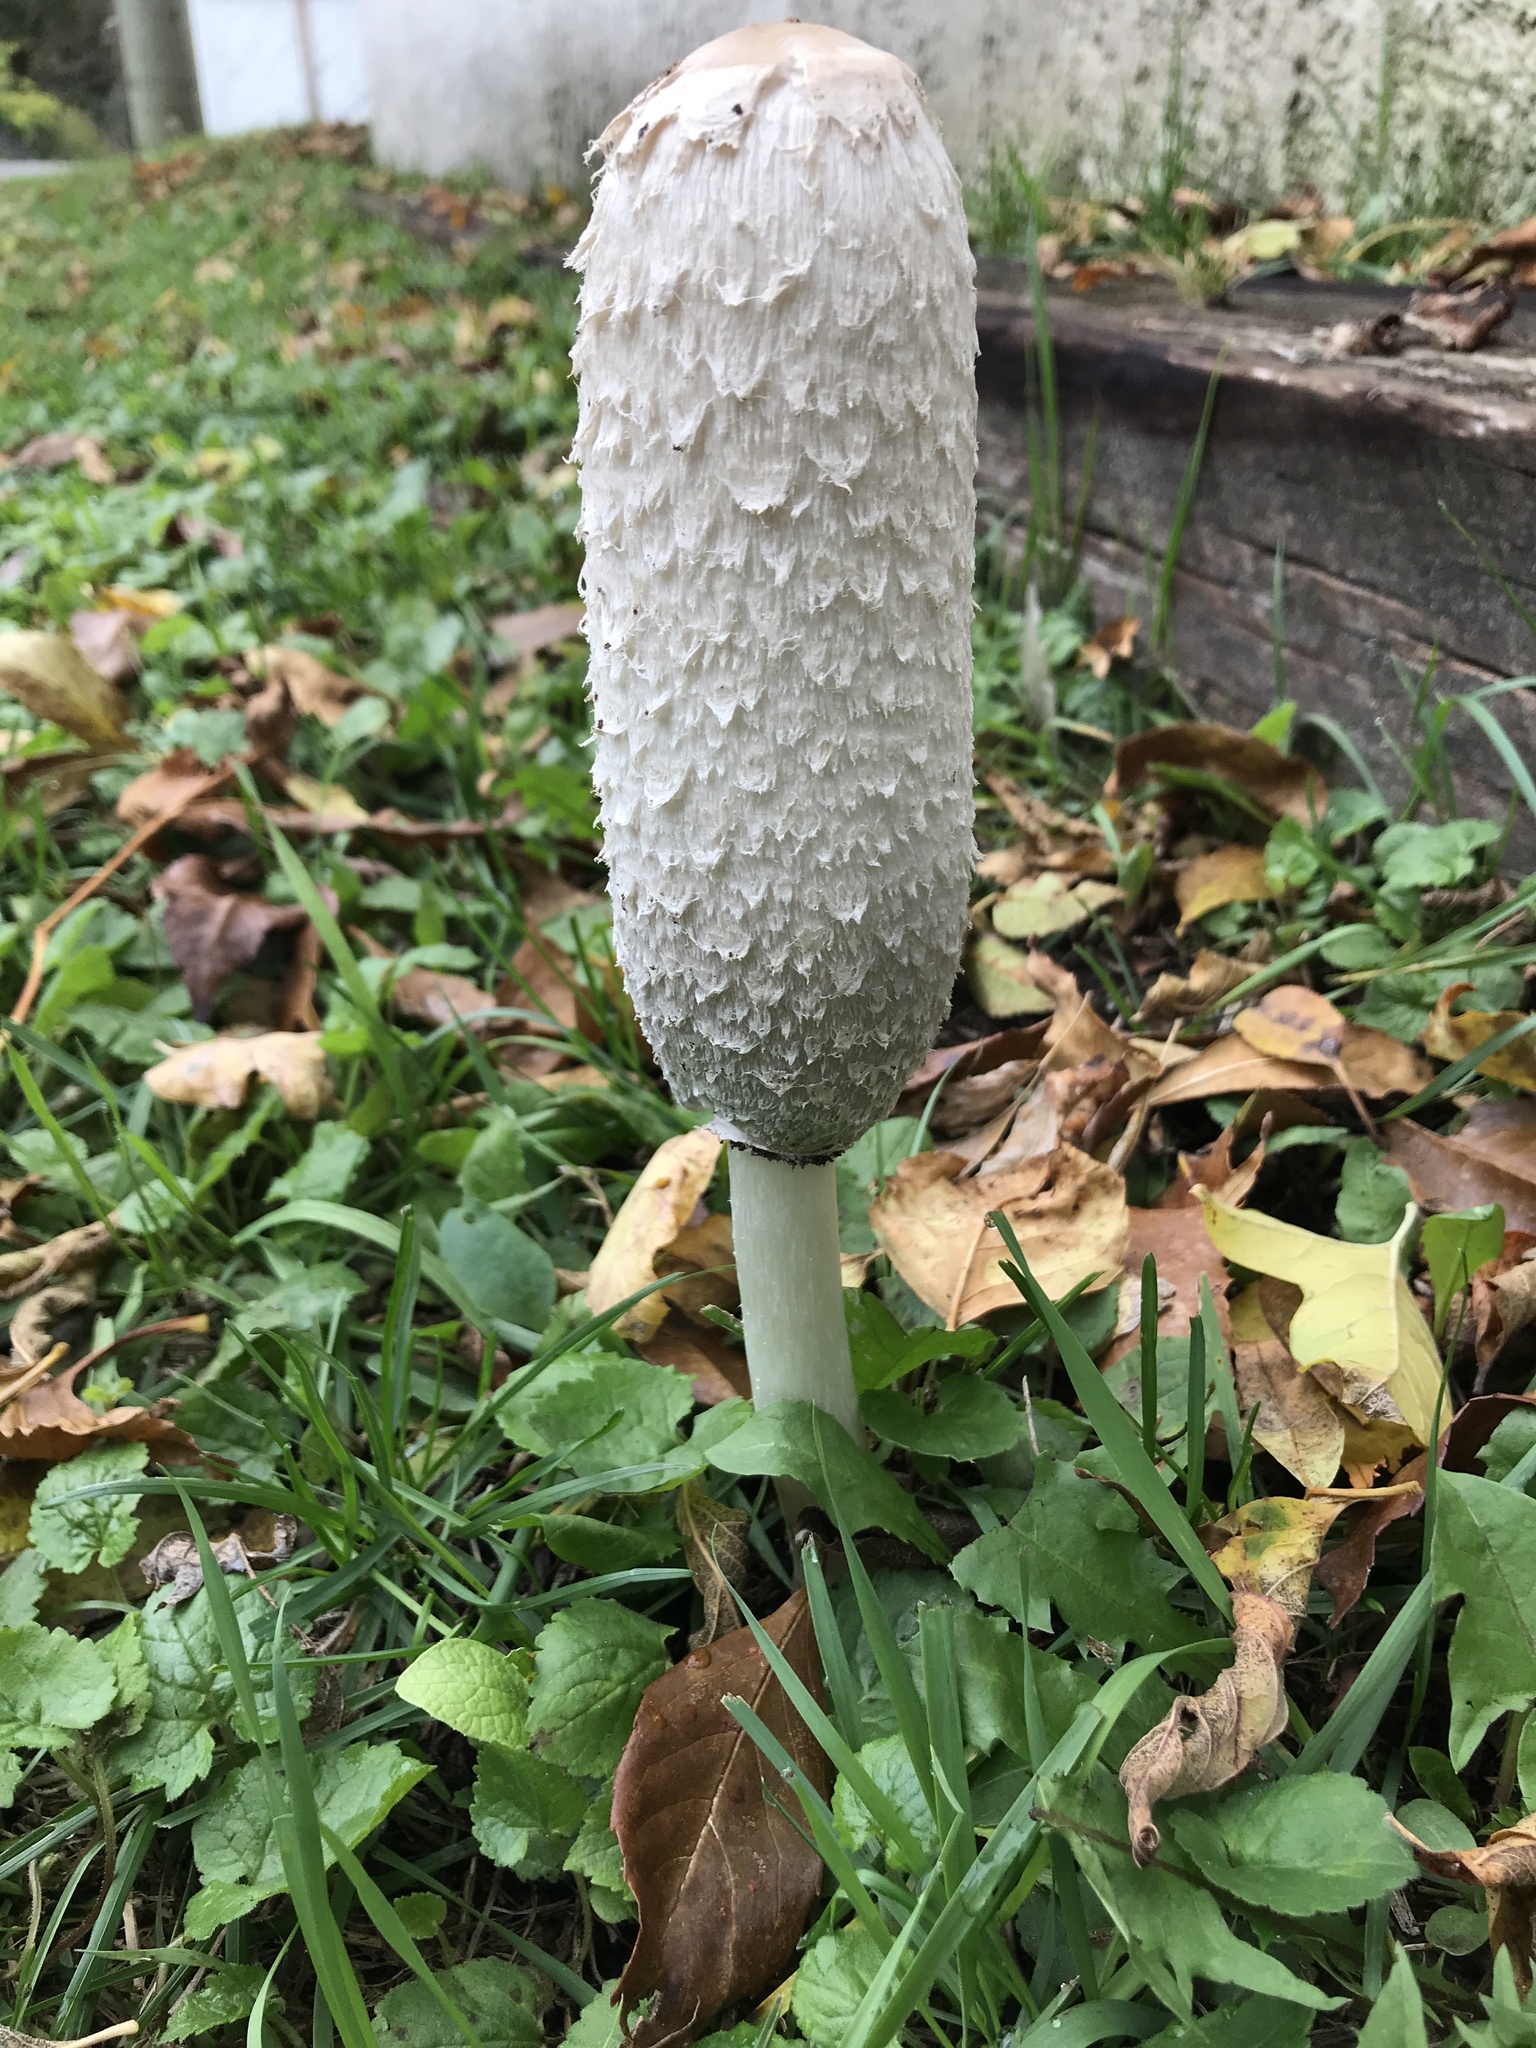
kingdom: Fungi
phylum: Basidiomycota
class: Agaricomycetes
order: Agaricales
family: Agaricaceae
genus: Coprinus
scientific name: Coprinus comatus
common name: Lawyer's wig
